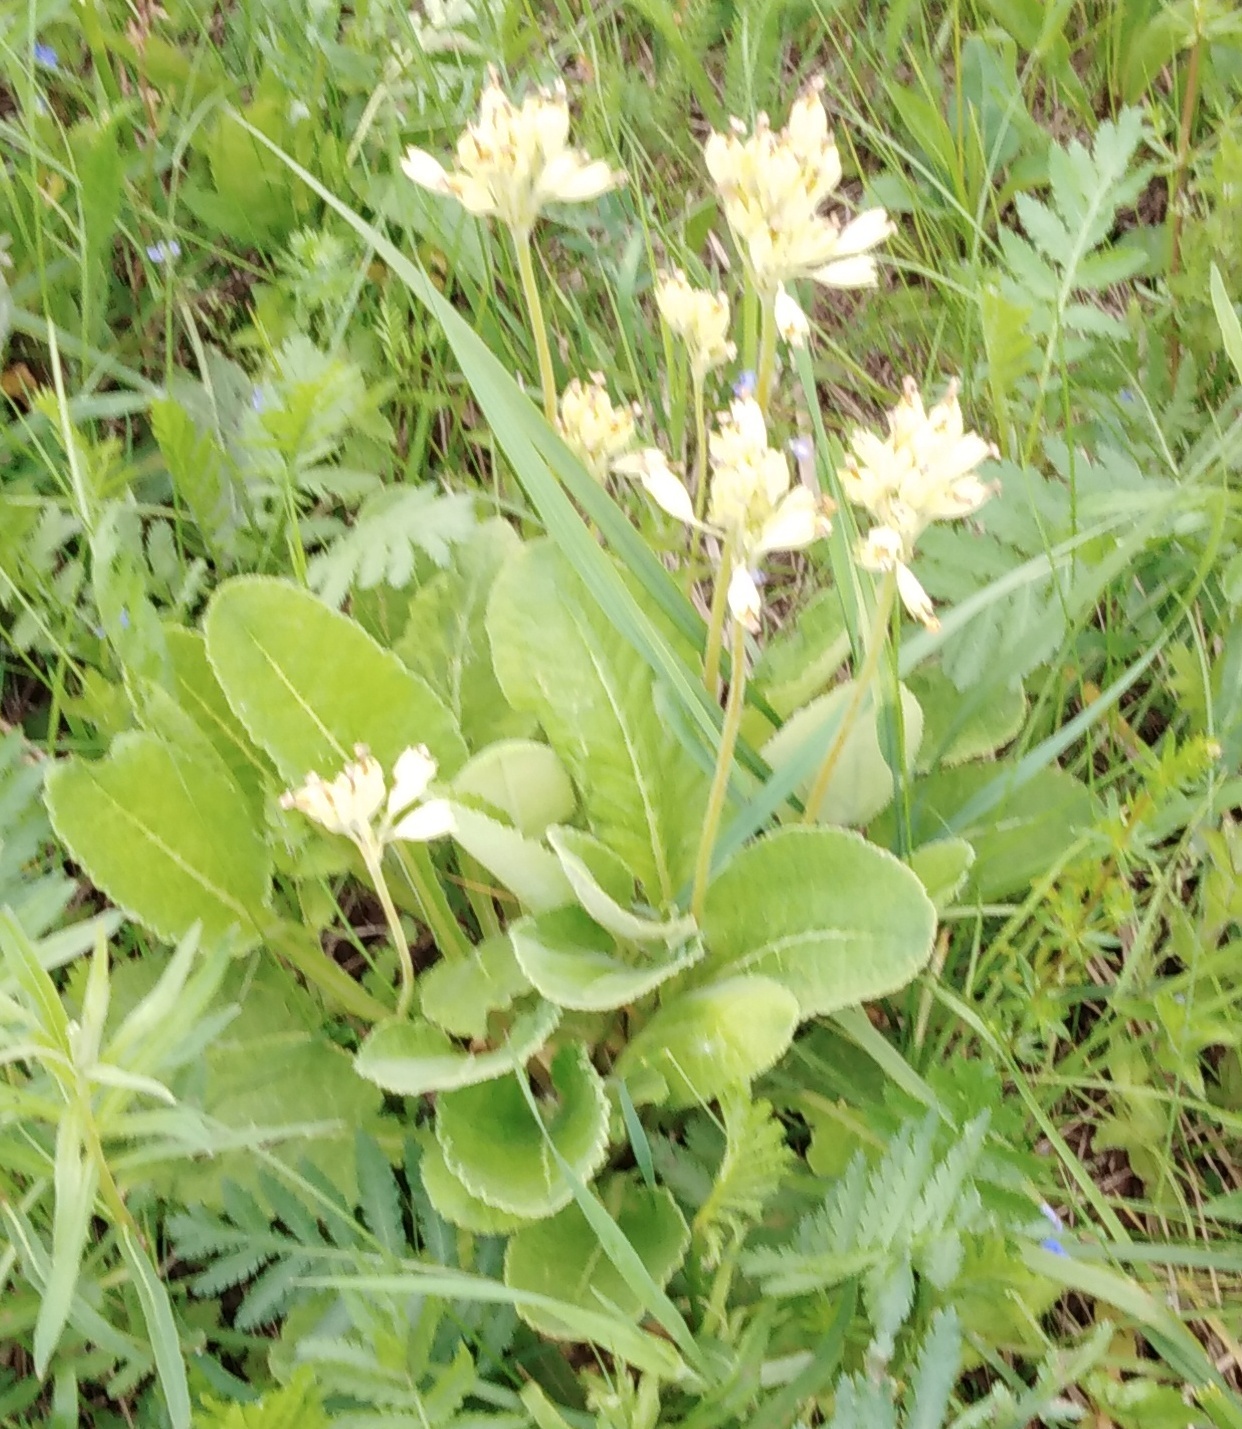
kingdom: Plantae
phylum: Tracheophyta
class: Magnoliopsida
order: Ericales
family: Primulaceae
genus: Primula
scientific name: Primula veris
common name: Cowslip
